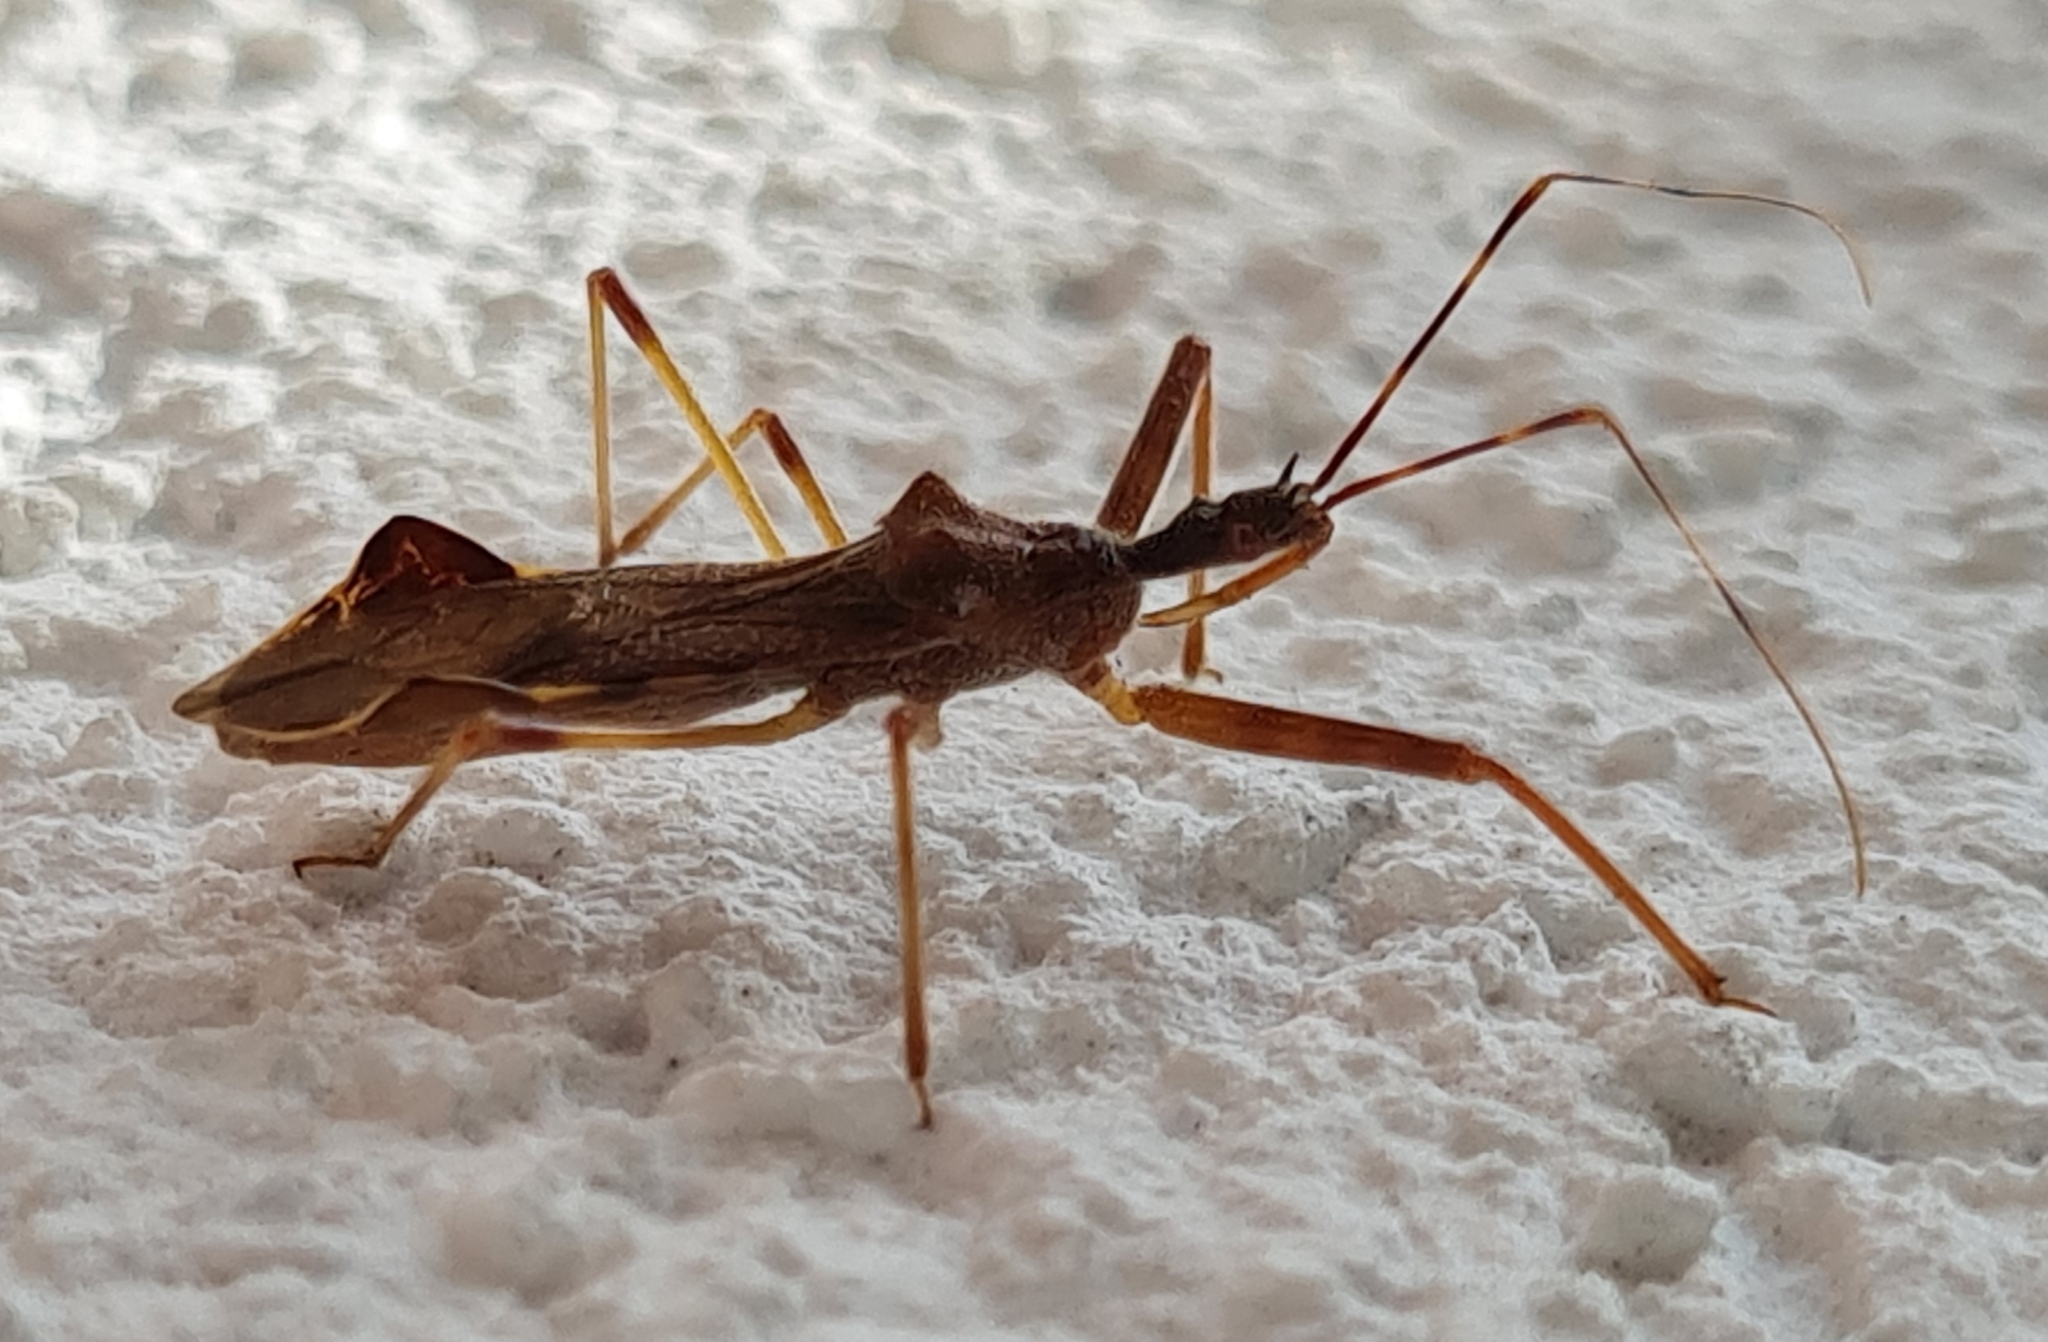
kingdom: Animalia
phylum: Arthropoda
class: Insecta
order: Hemiptera
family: Reduviidae
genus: Nagusta
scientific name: Nagusta goedelii
